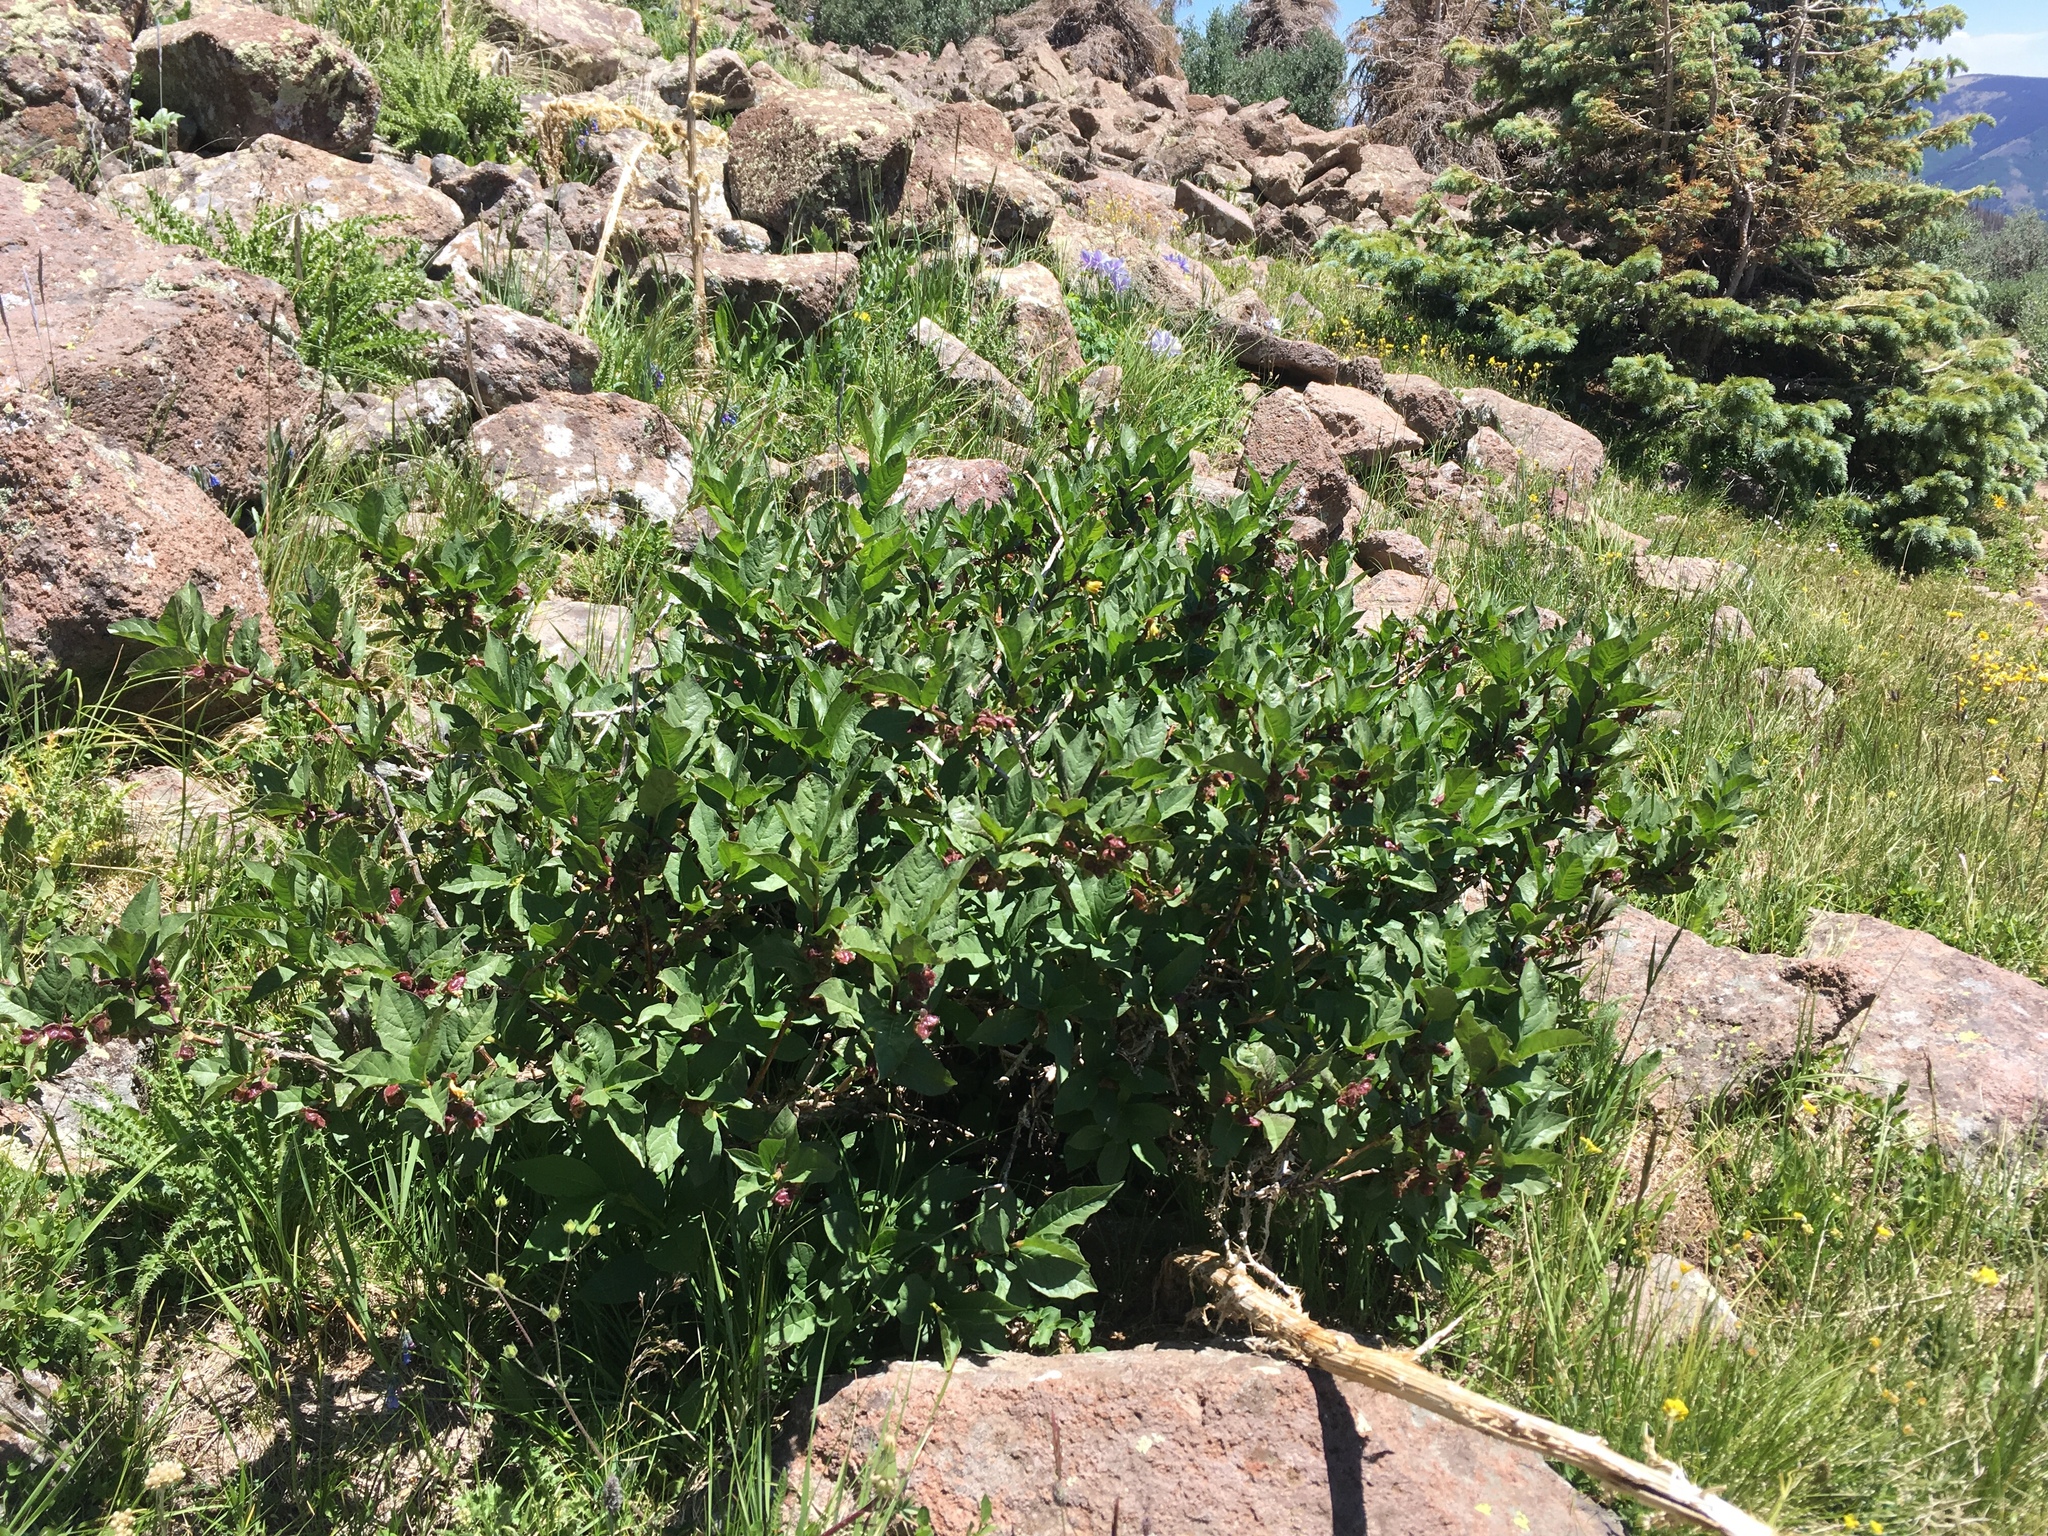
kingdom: Plantae
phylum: Tracheophyta
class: Magnoliopsida
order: Dipsacales
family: Caprifoliaceae
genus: Lonicera
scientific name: Lonicera involucrata
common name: Californian honeysuckle
